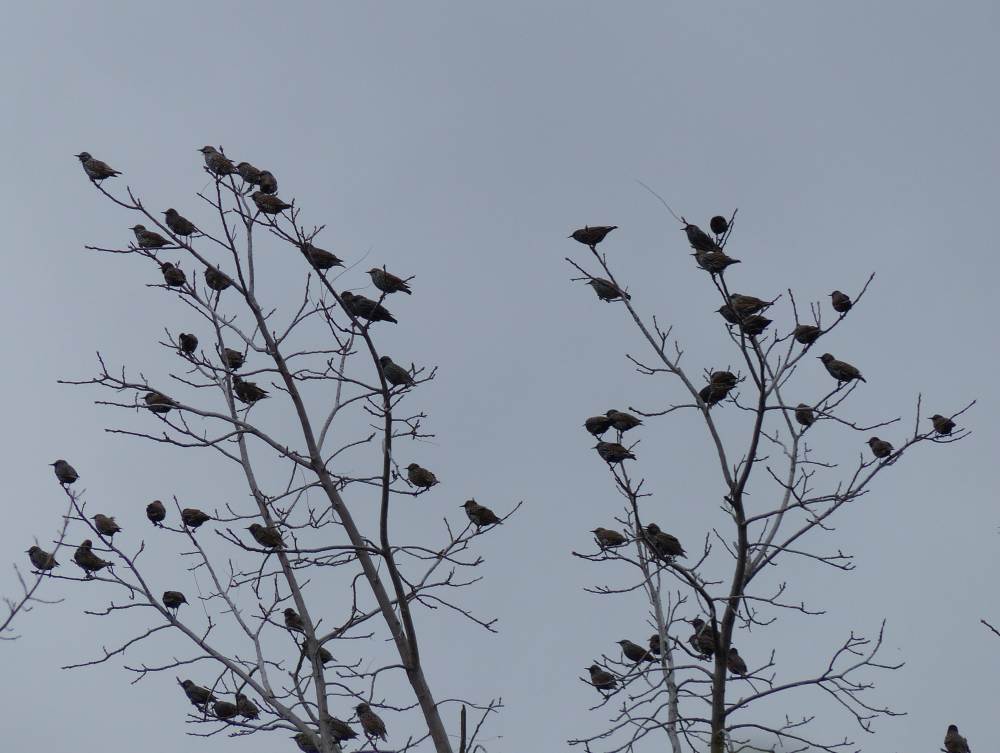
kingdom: Animalia
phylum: Chordata
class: Aves
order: Passeriformes
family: Sturnidae
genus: Sturnus
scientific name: Sturnus vulgaris
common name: Common starling
